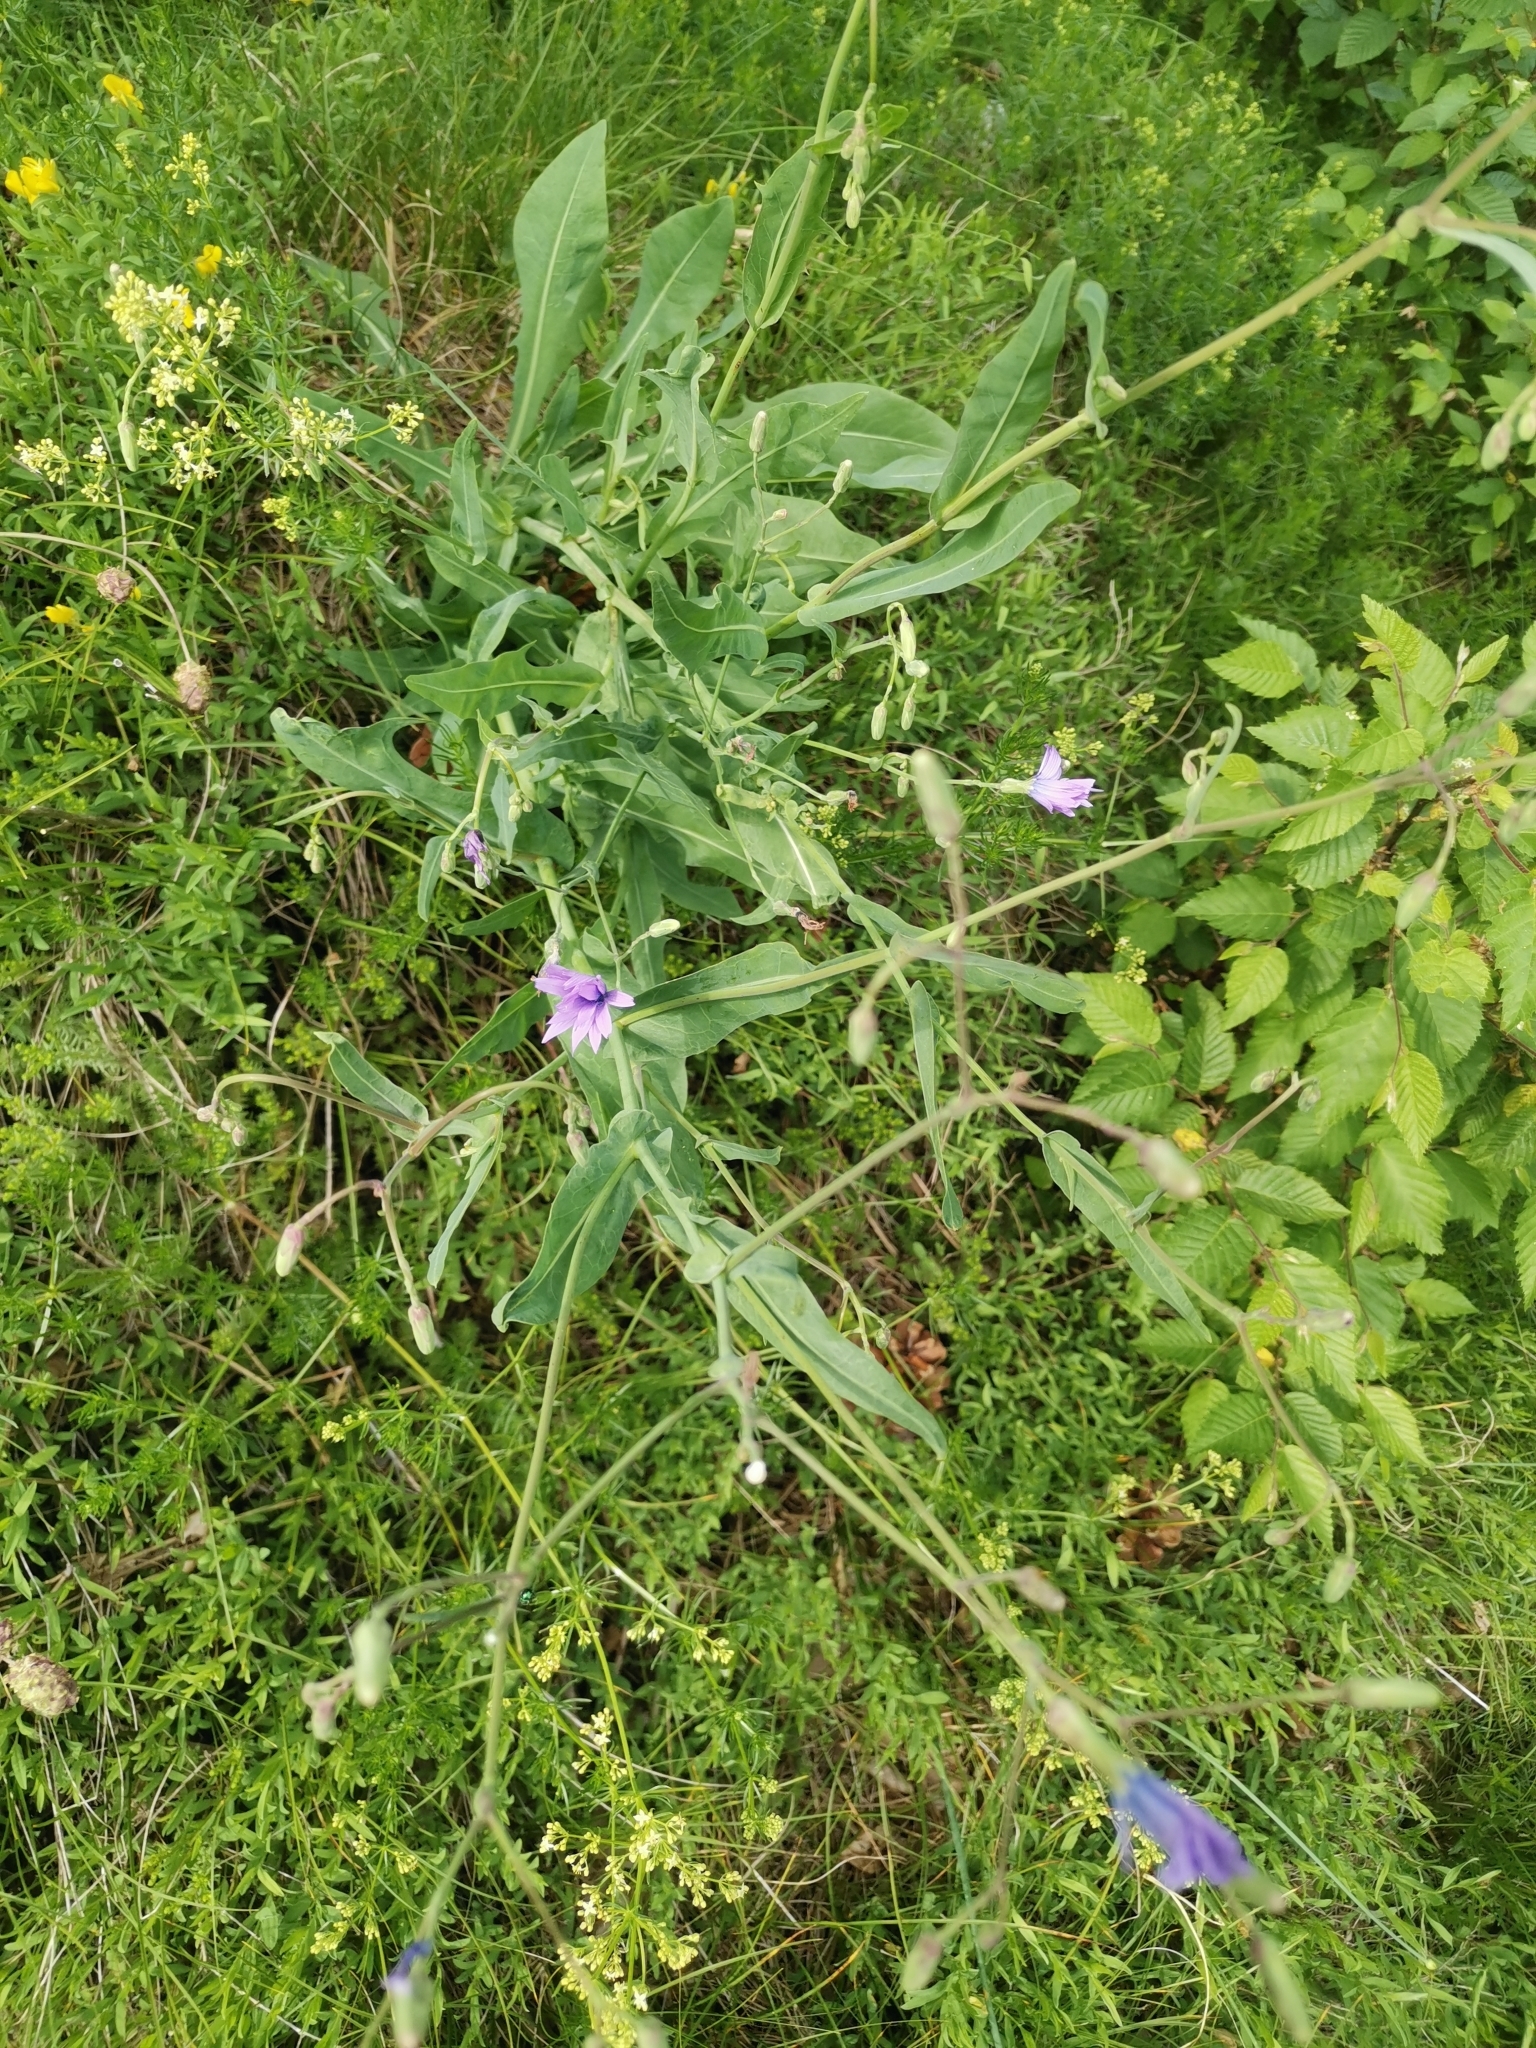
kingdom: Plantae
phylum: Tracheophyta
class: Magnoliopsida
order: Asterales
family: Asteraceae
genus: Lactuca
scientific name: Lactuca perennis
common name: Mountain lettuce
